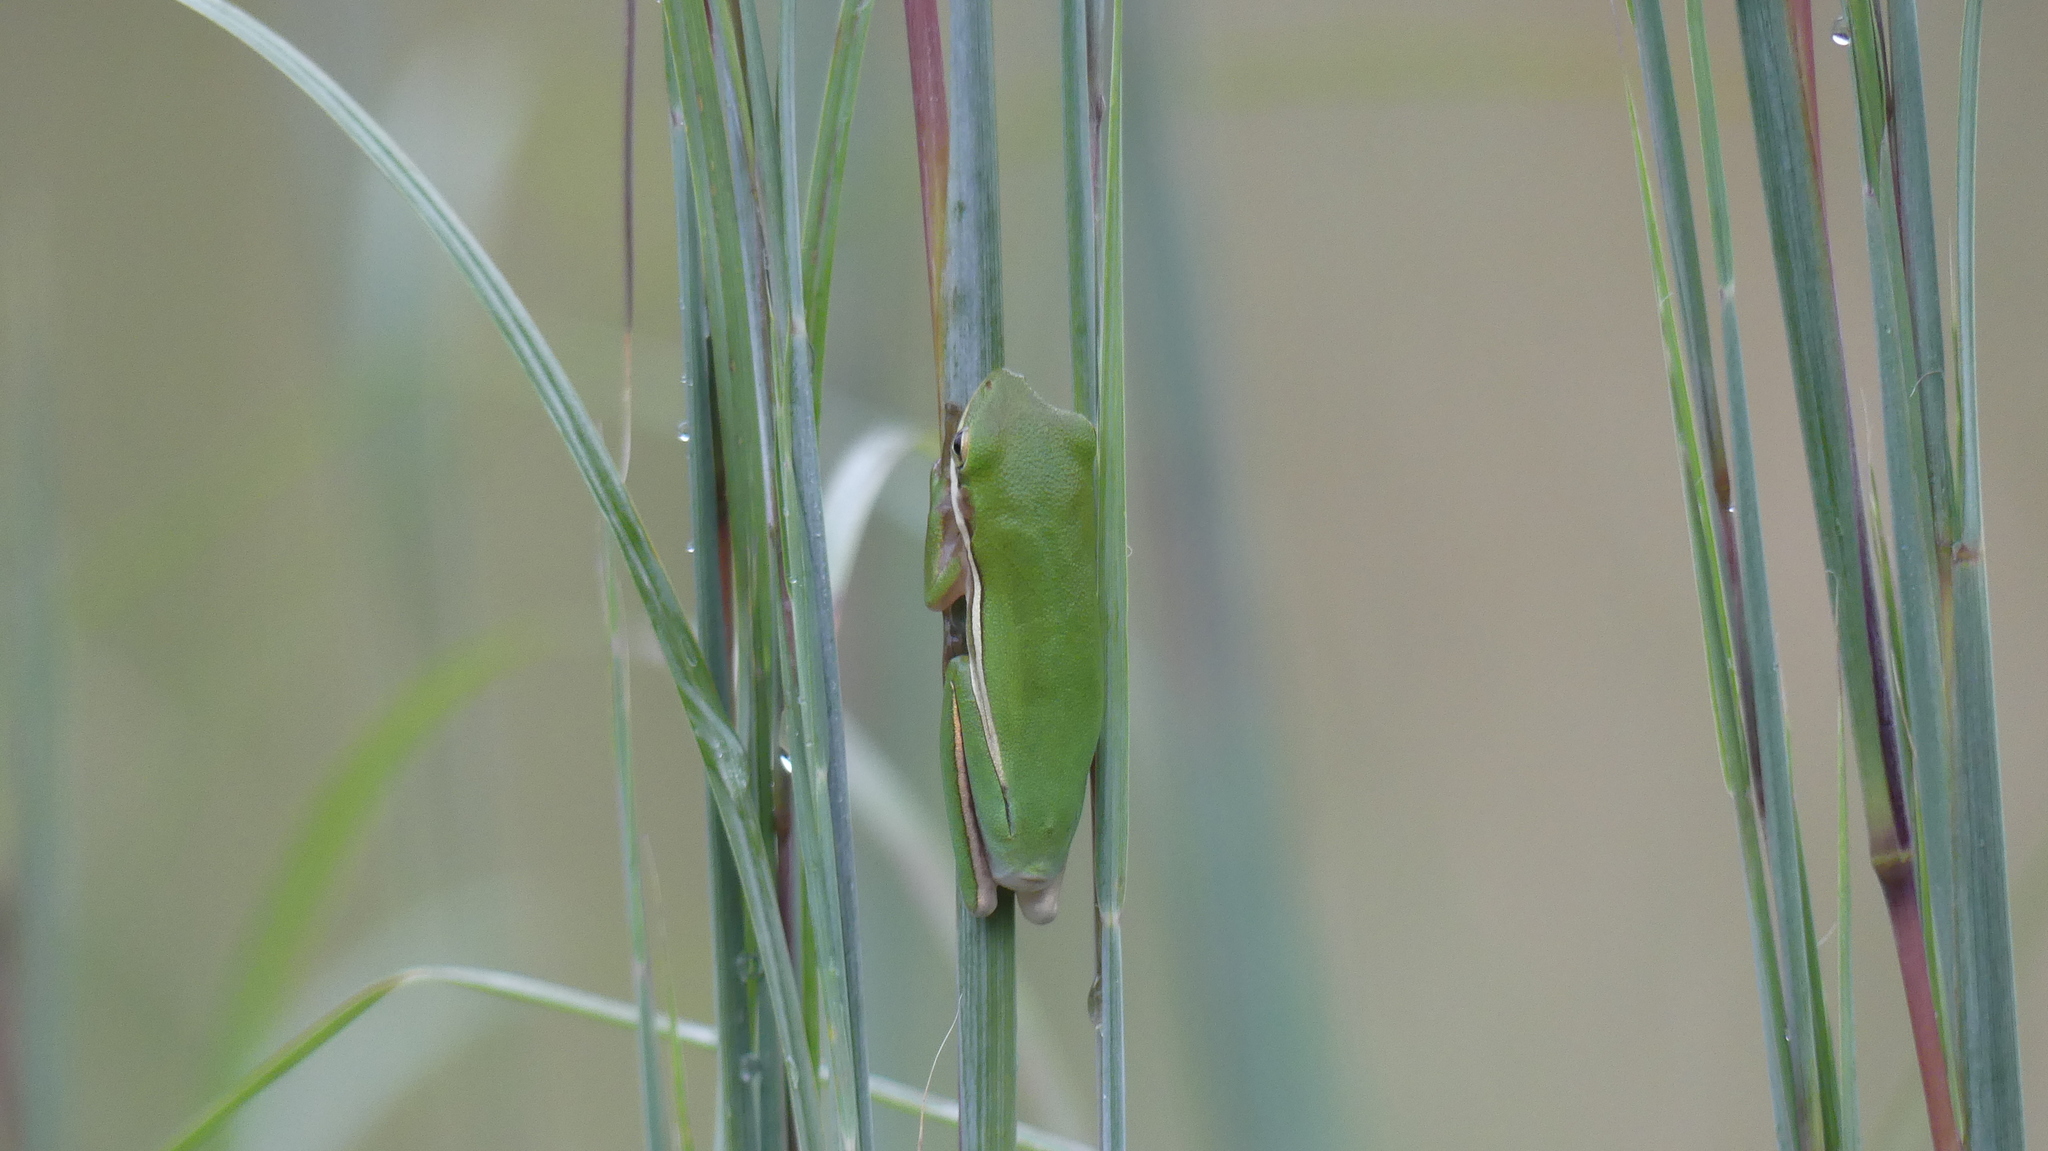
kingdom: Animalia
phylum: Chordata
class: Amphibia
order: Anura
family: Hylidae
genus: Dryophytes
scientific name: Dryophytes cinereus
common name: Green treefrog
